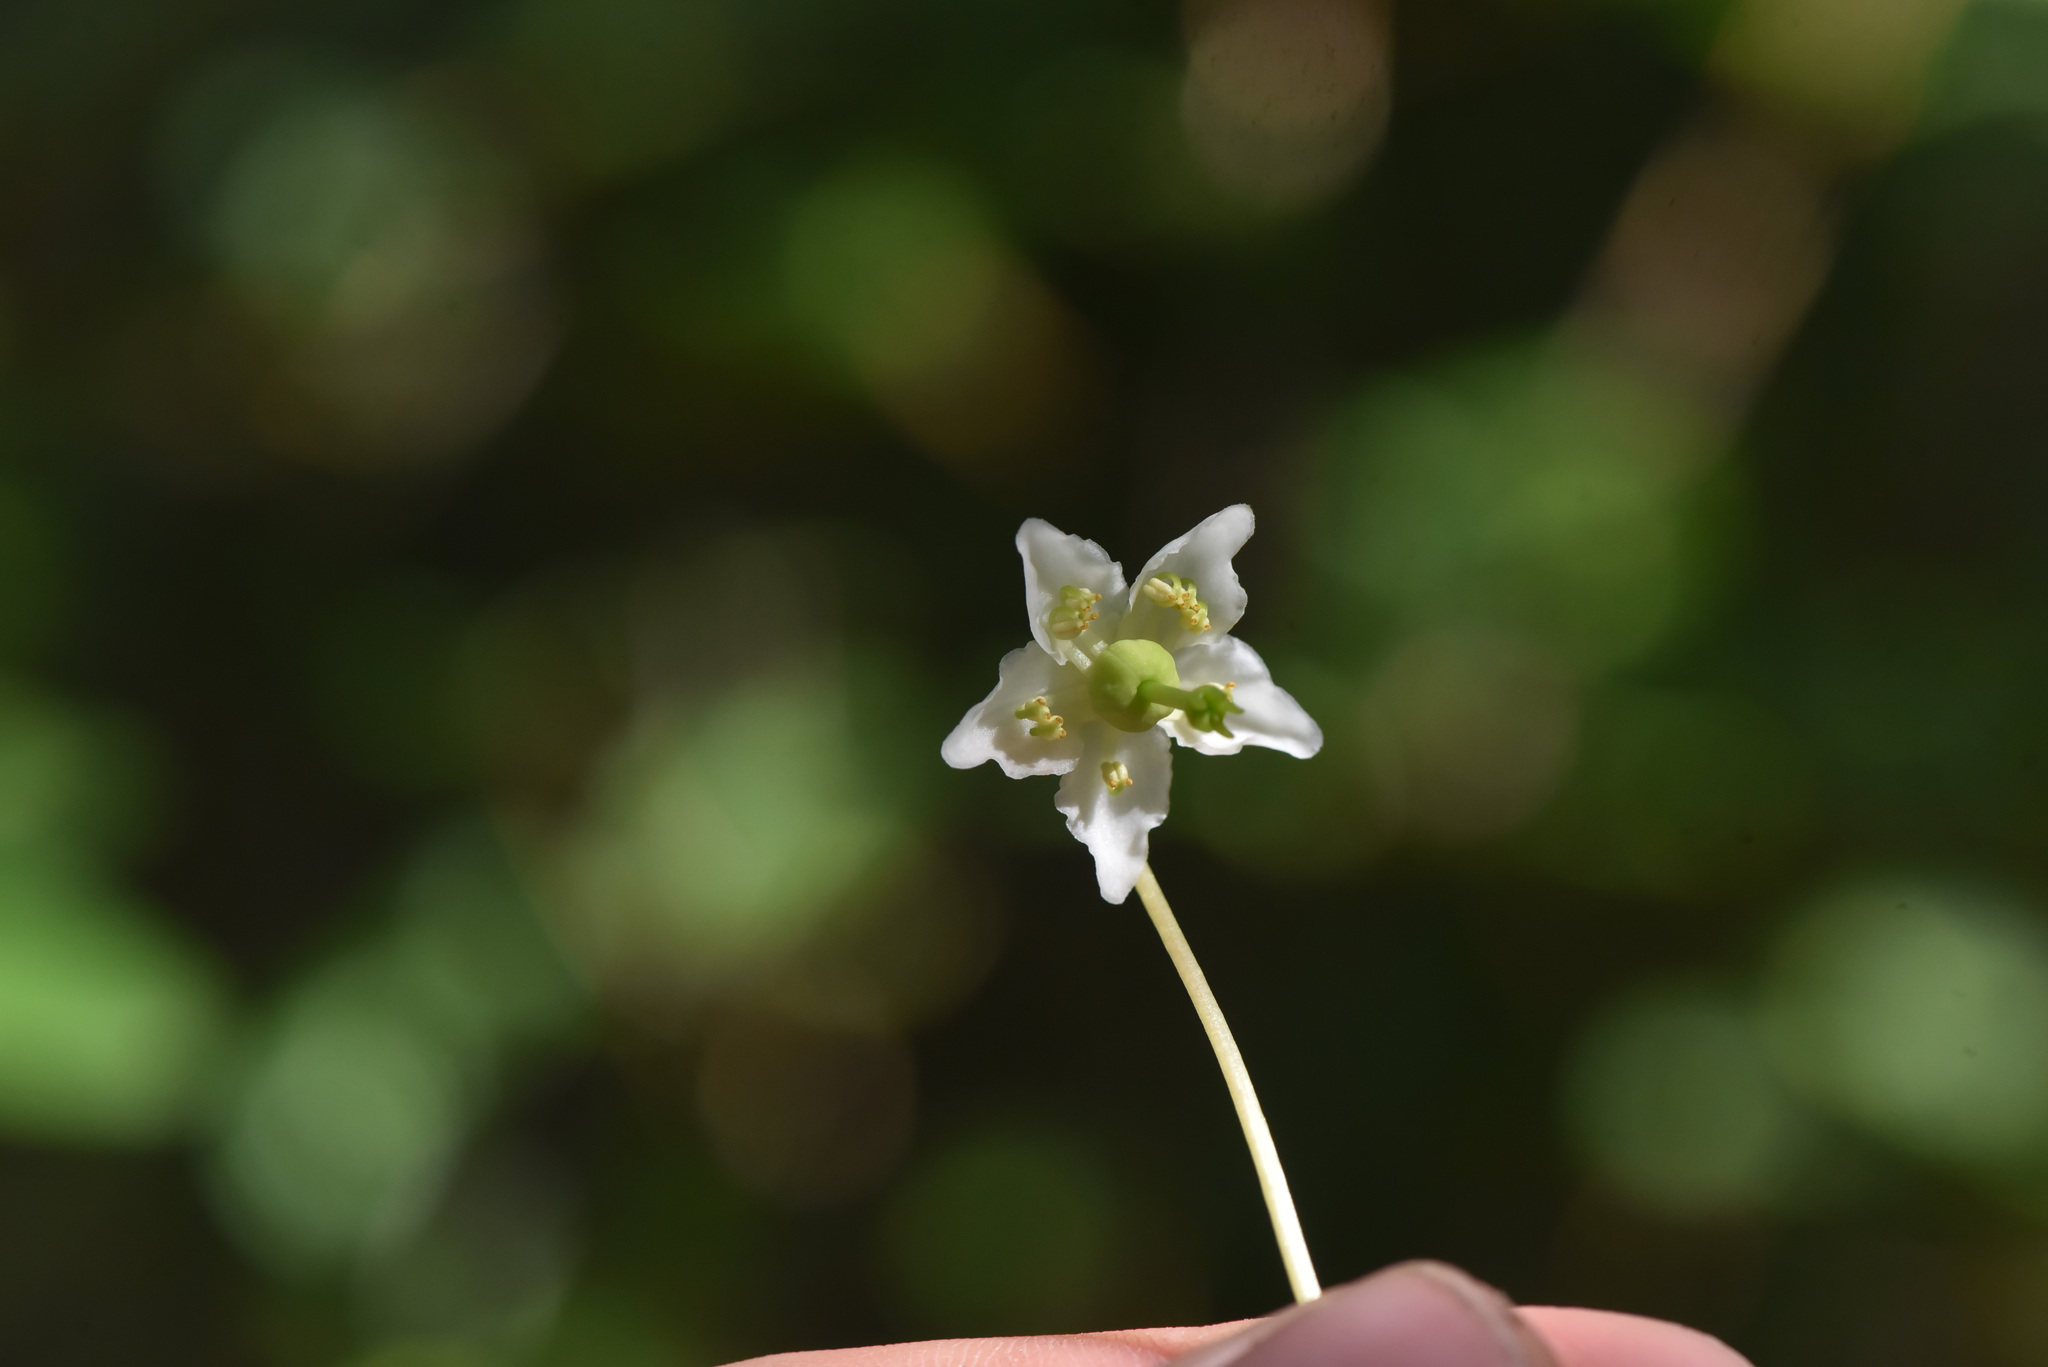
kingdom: Plantae
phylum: Tracheophyta
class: Magnoliopsida
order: Ericales
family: Ericaceae
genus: Moneses
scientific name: Moneses uniflora
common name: One-flowered wintergreen
